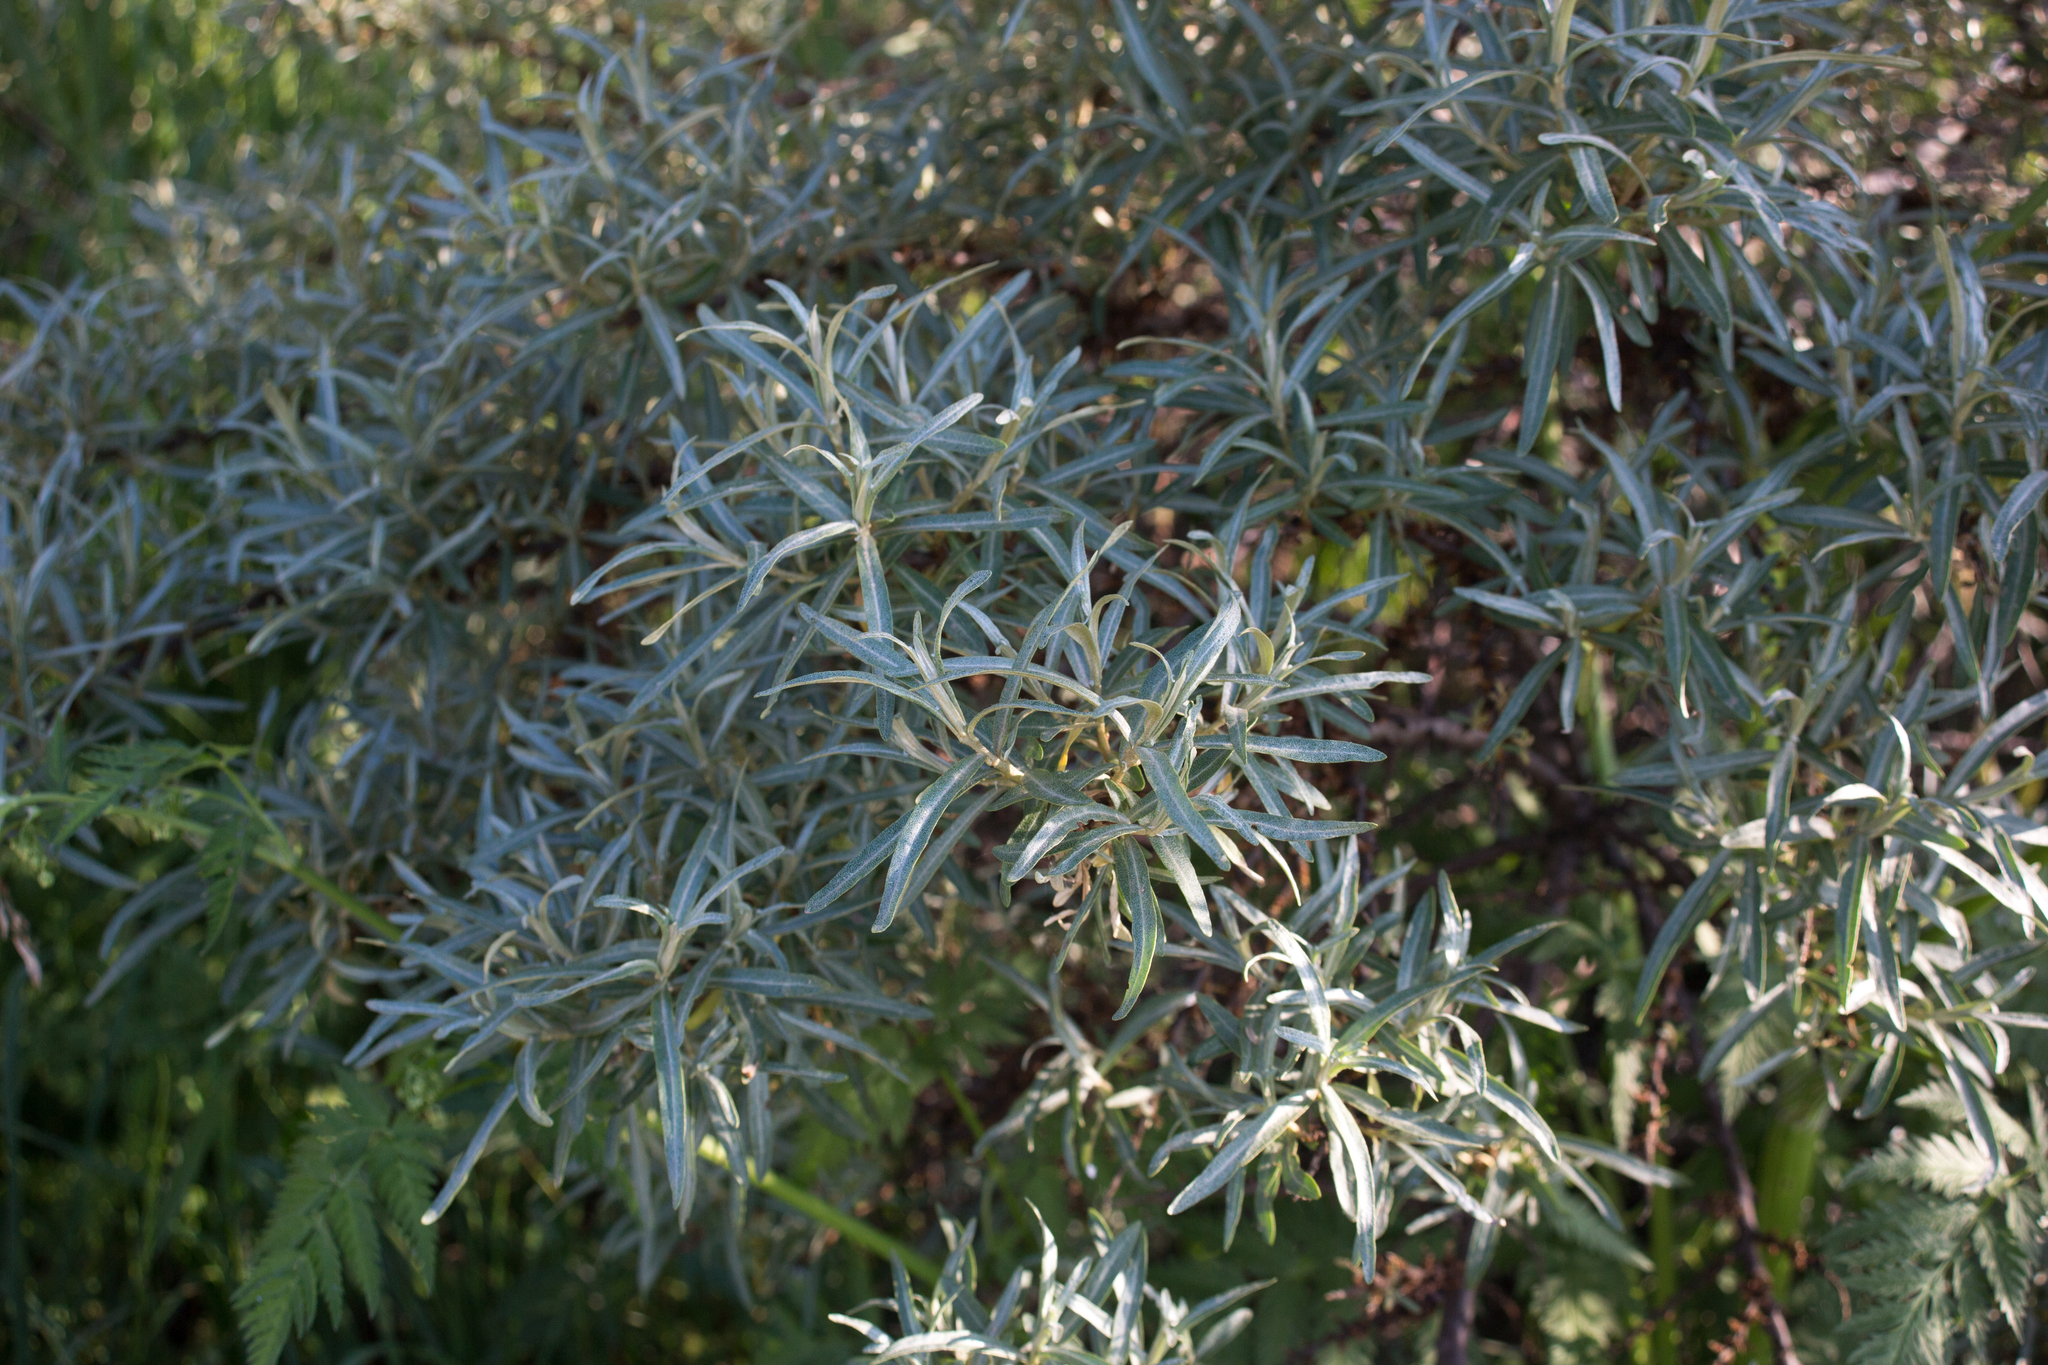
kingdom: Plantae
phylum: Tracheophyta
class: Magnoliopsida
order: Rosales
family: Elaeagnaceae
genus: Hippophae
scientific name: Hippophae rhamnoides
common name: Sea-buckthorn
